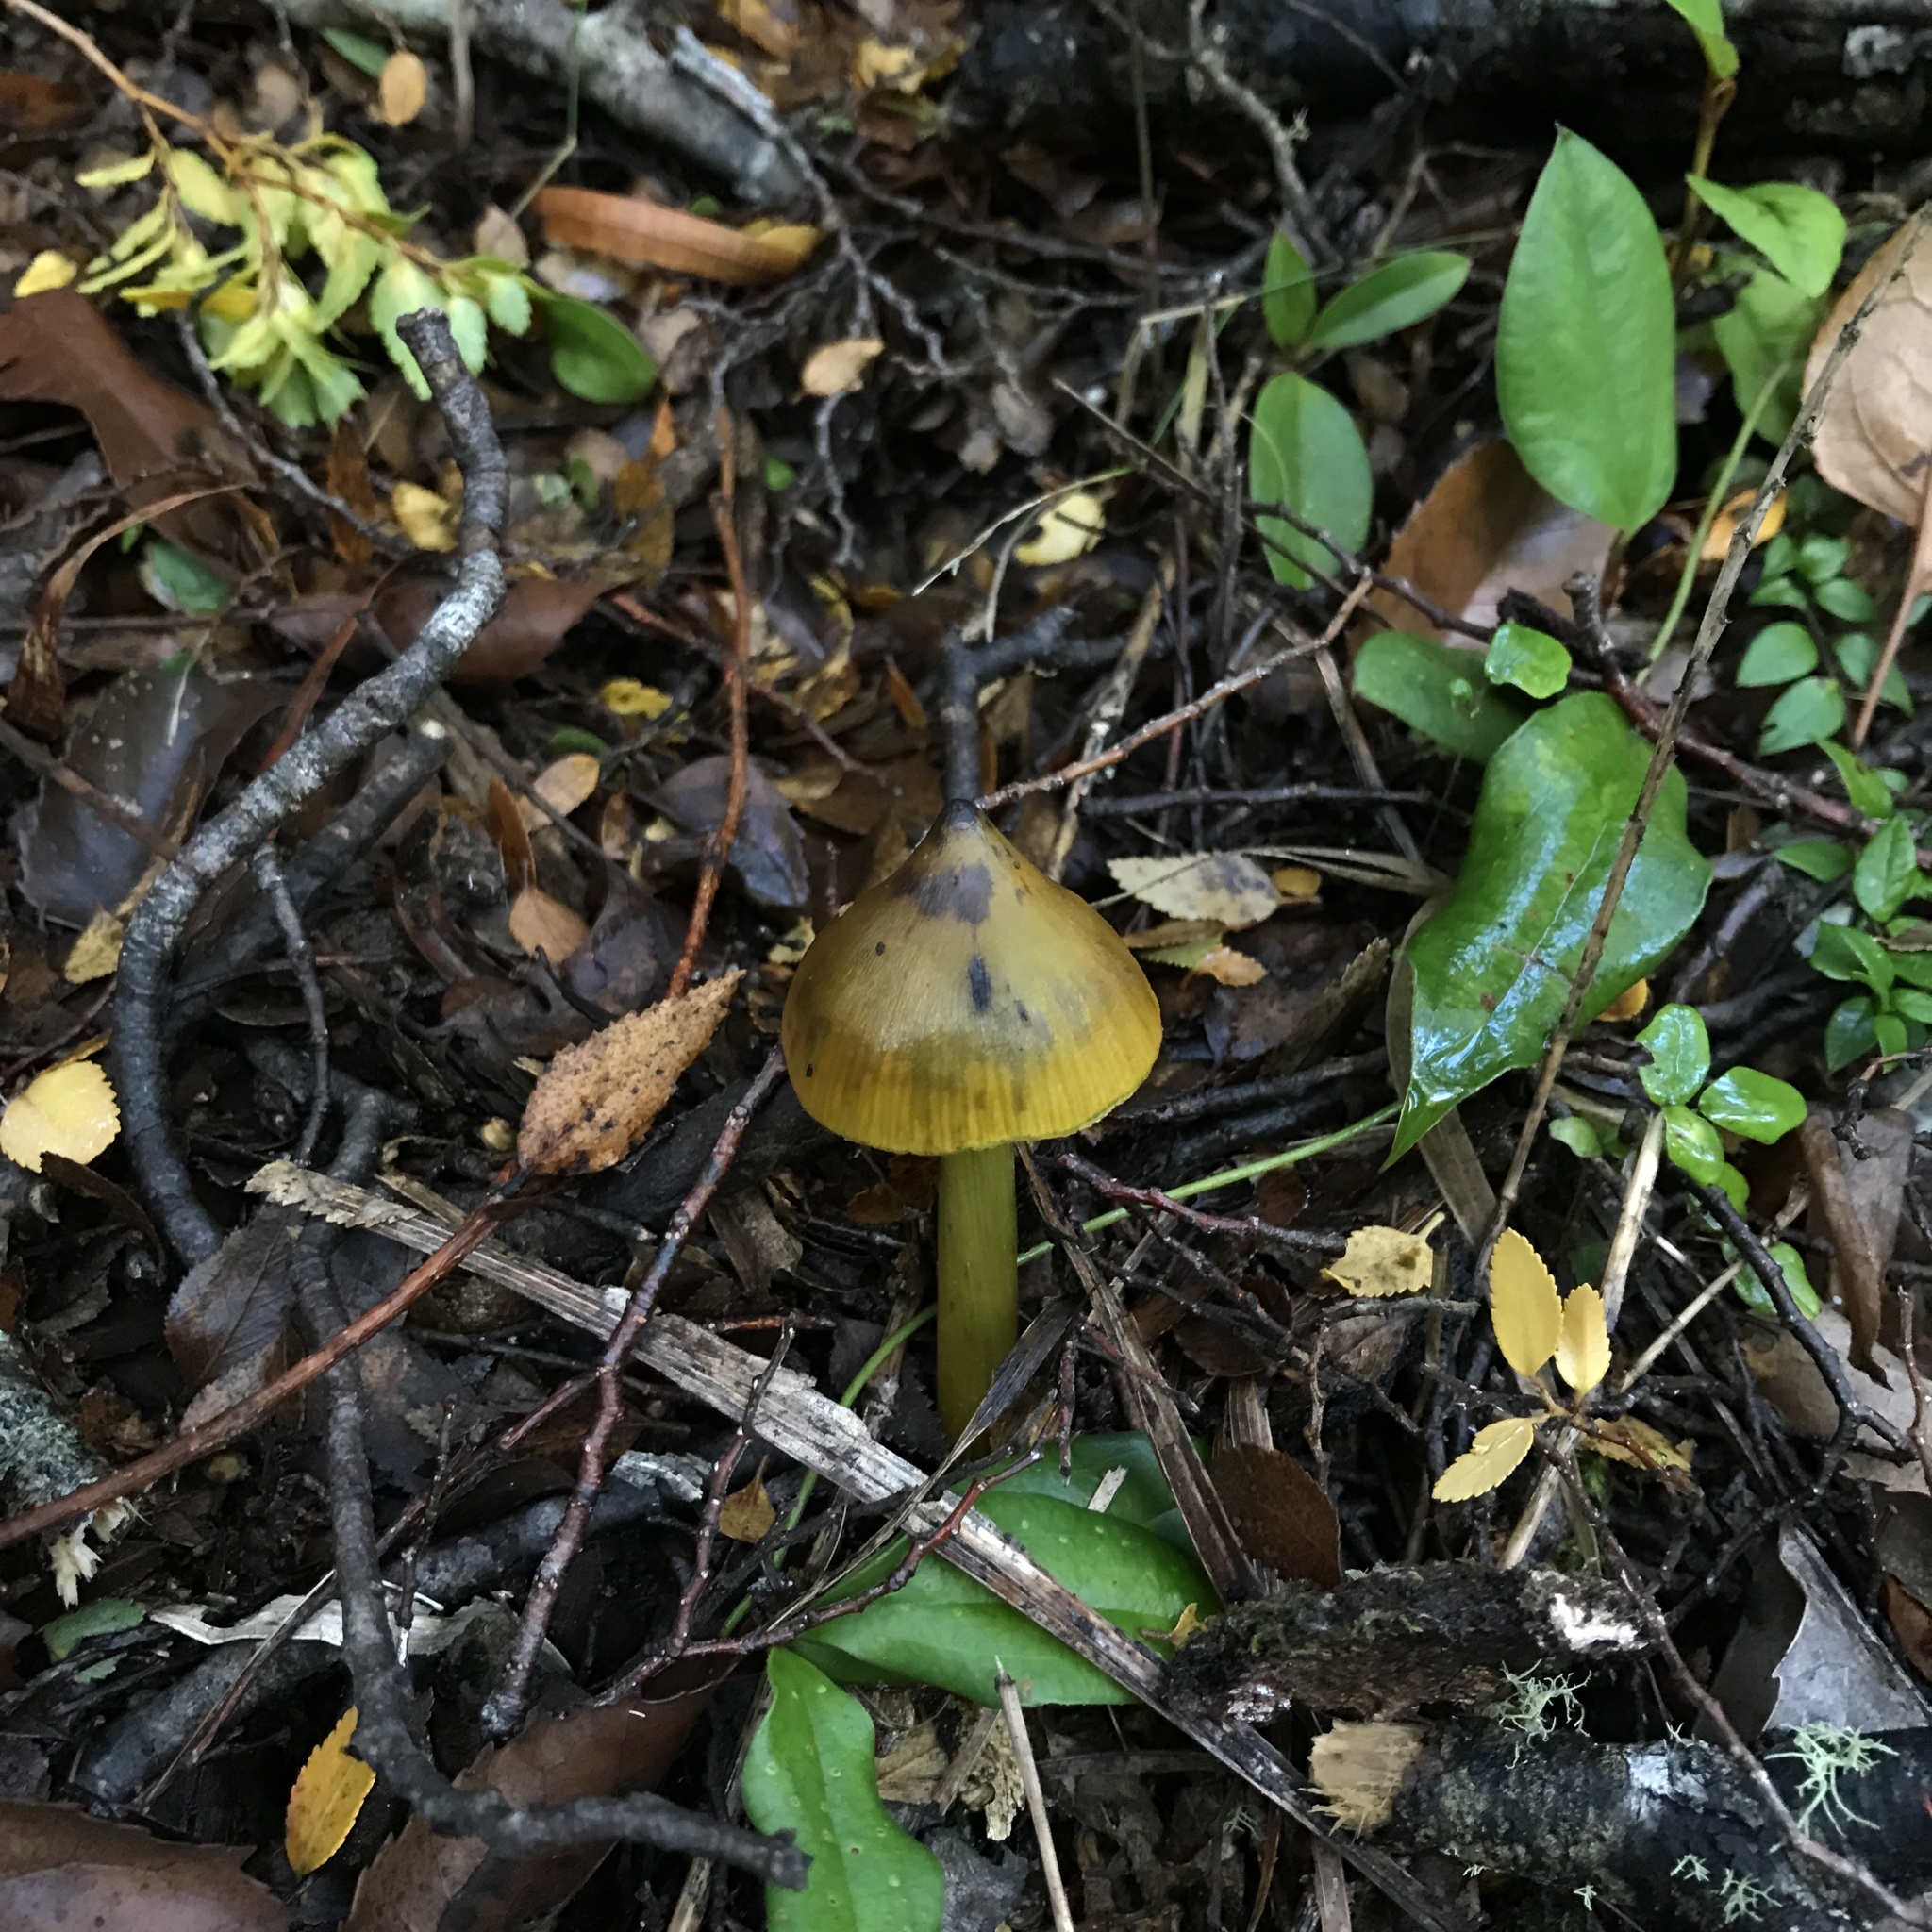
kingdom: Fungi
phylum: Basidiomycota
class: Agaricomycetes
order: Agaricales
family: Hygrophoraceae
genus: Hygrocybe
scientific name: Hygrocybe conica
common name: Blackening wax-cap
